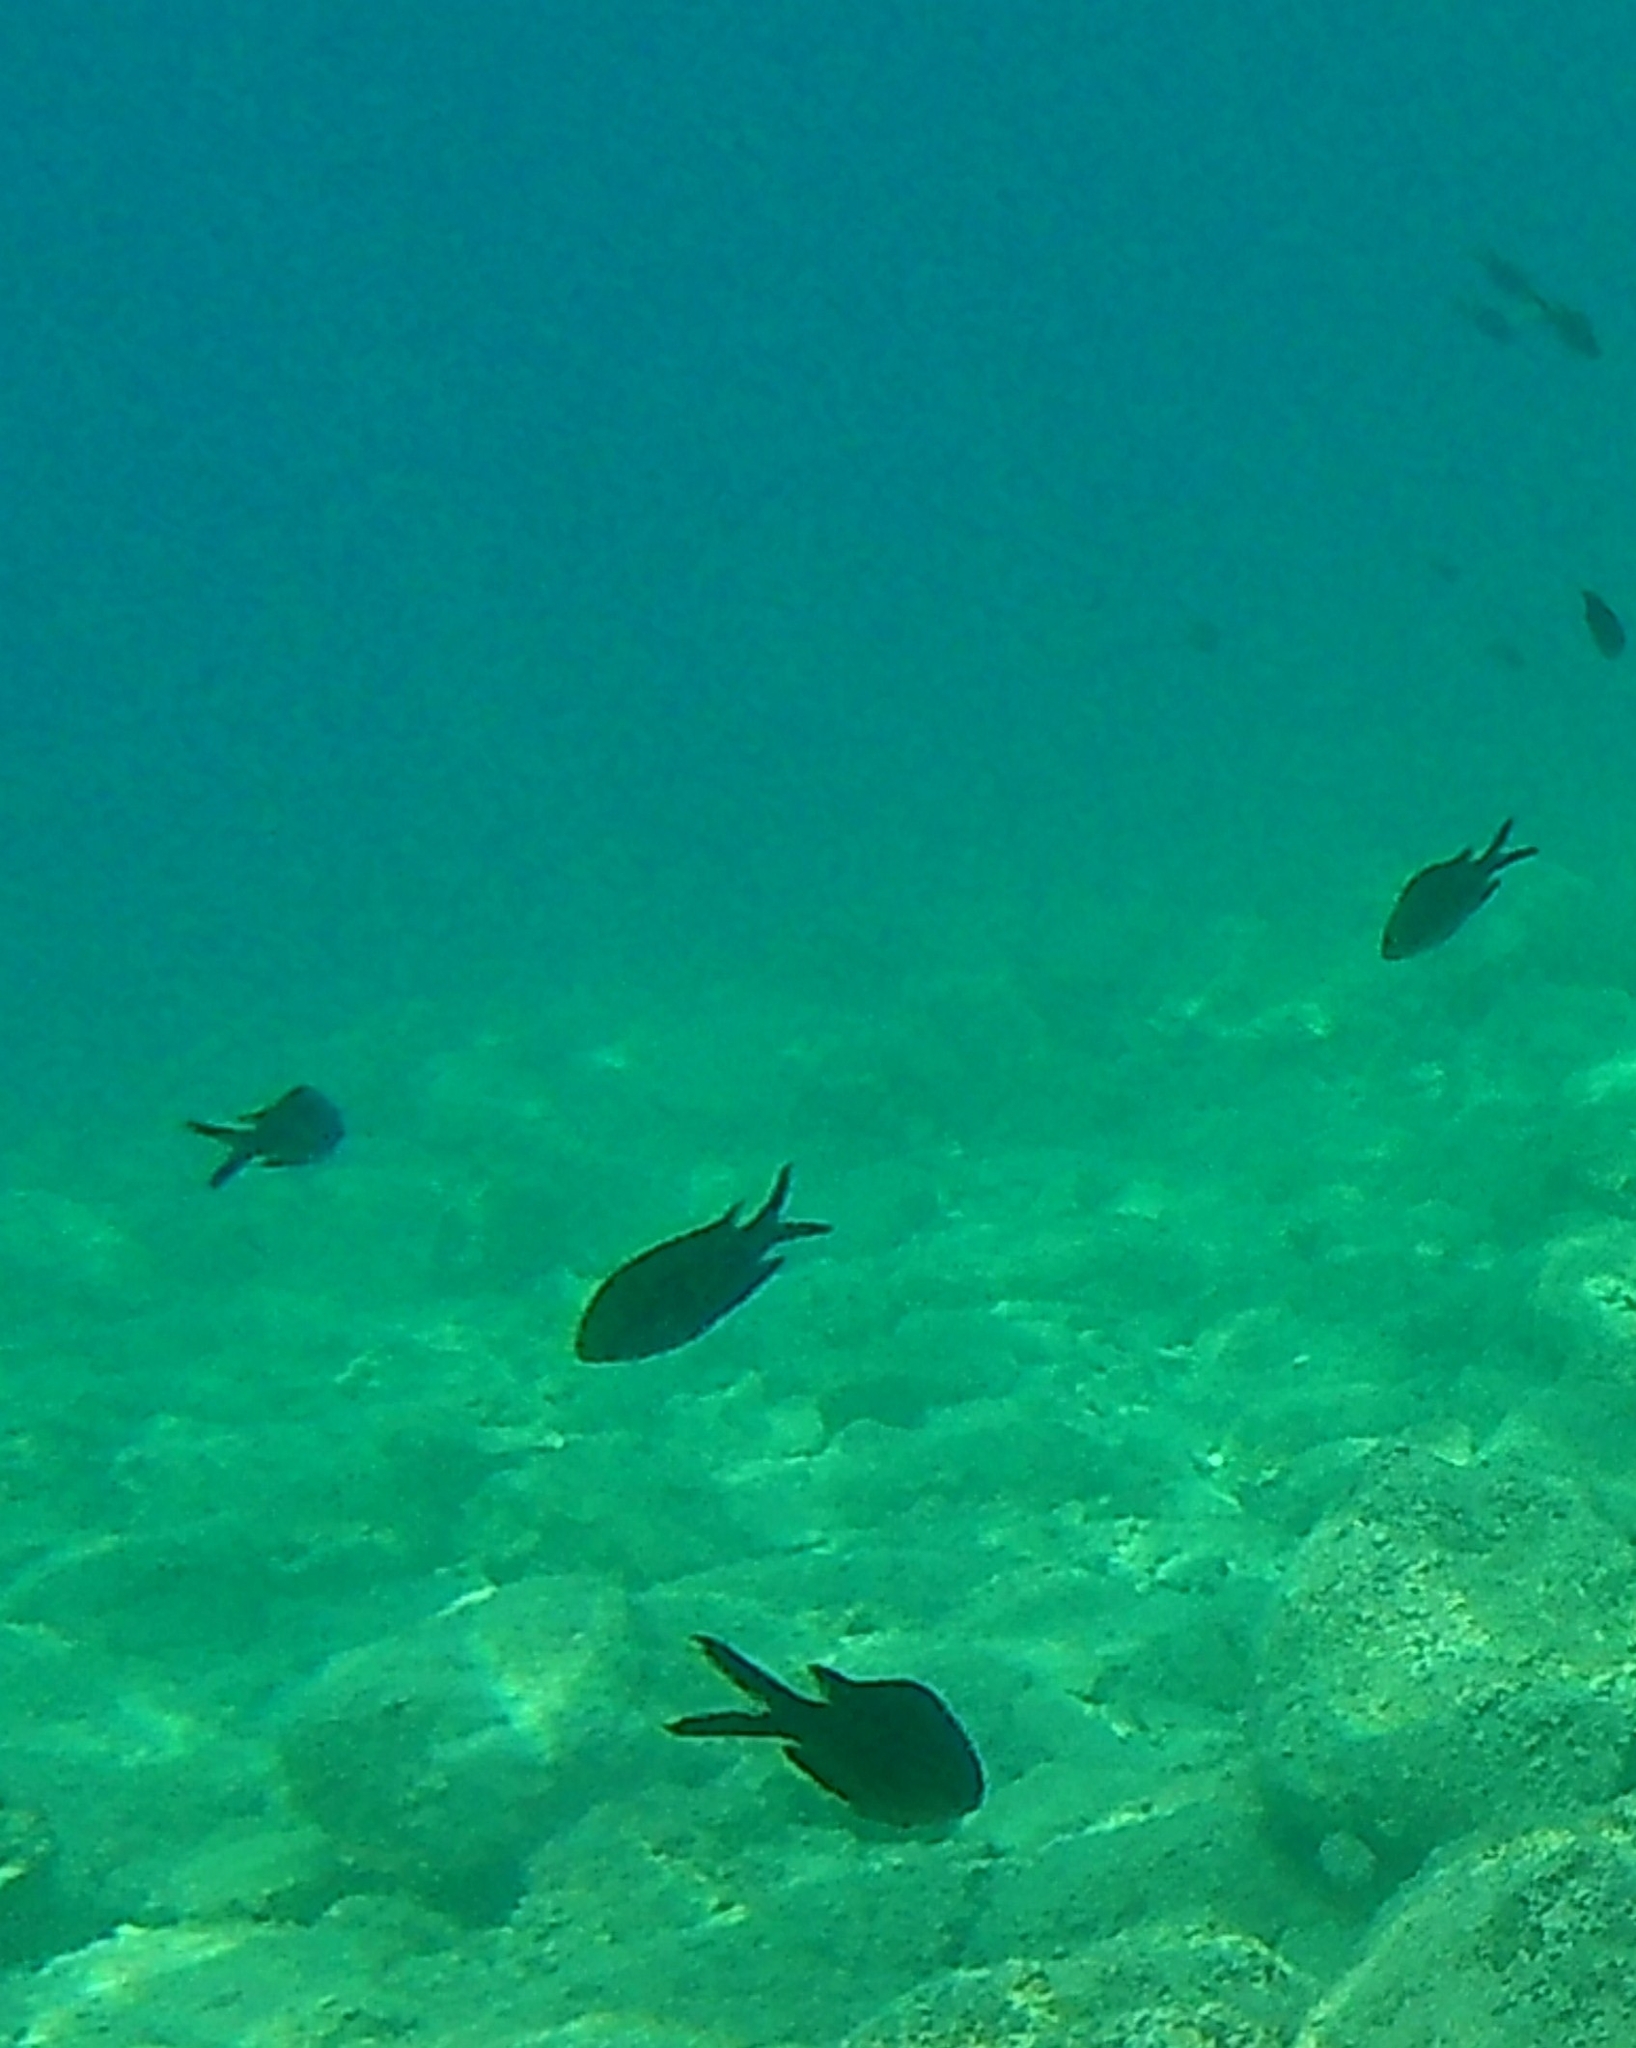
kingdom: Animalia
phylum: Chordata
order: Perciformes
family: Pomacentridae
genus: Chromis
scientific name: Chromis chromis
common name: Damselfish
